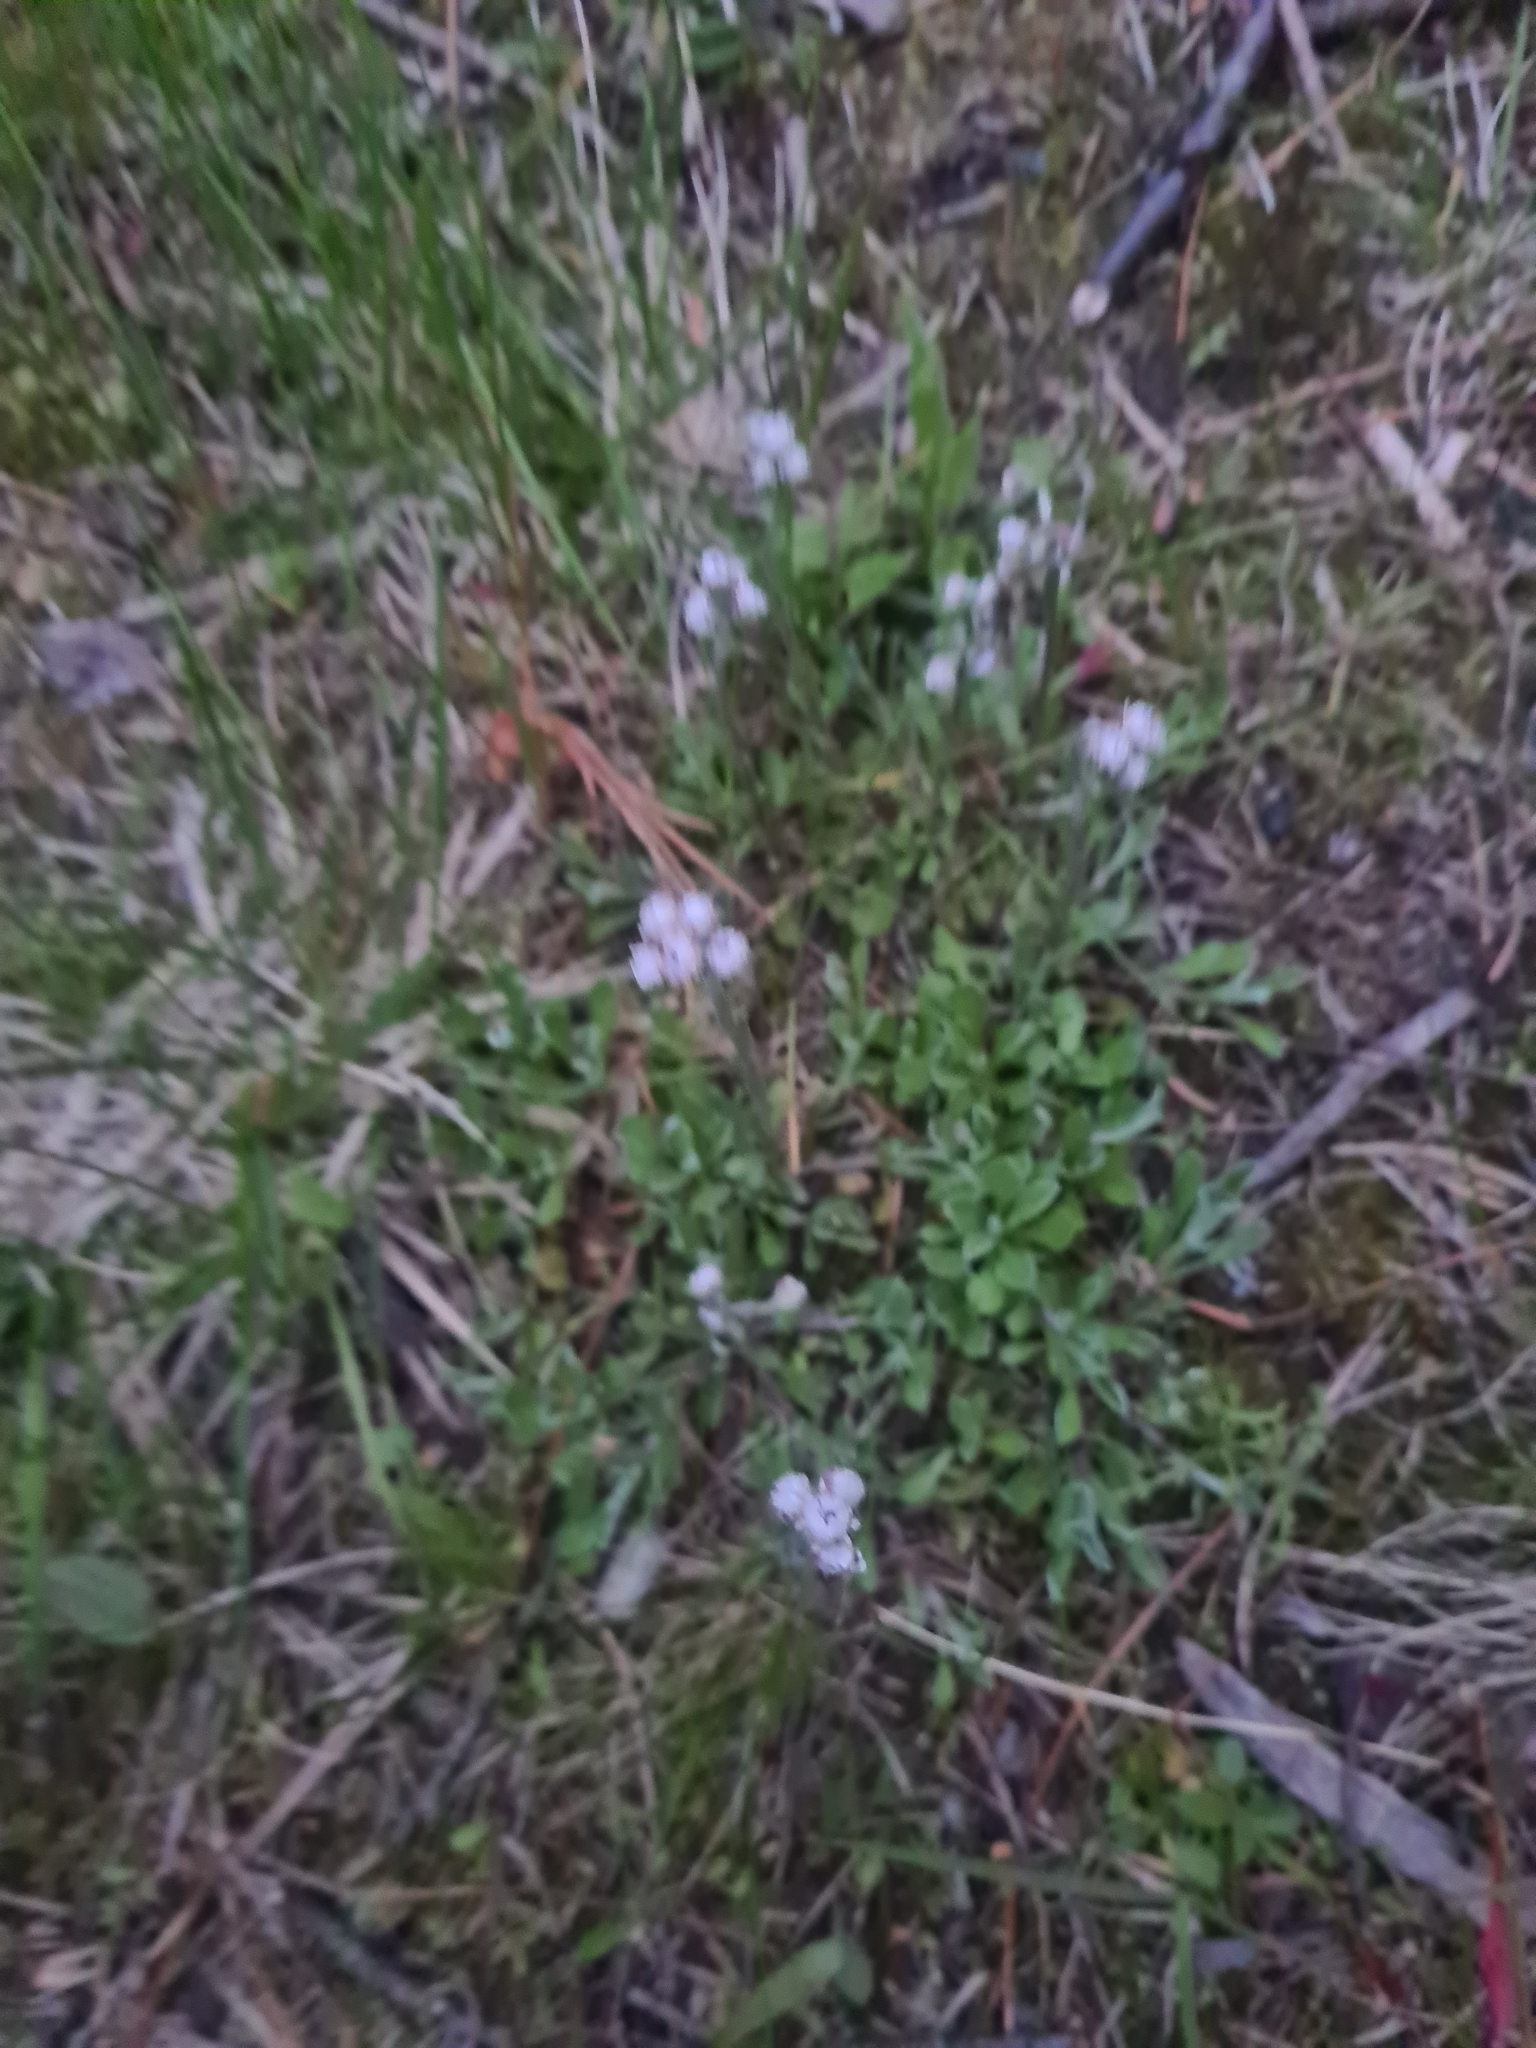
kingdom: Plantae
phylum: Tracheophyta
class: Magnoliopsida
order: Asterales
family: Asteraceae
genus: Antennaria
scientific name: Antennaria dioica
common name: Mountain everlasting
